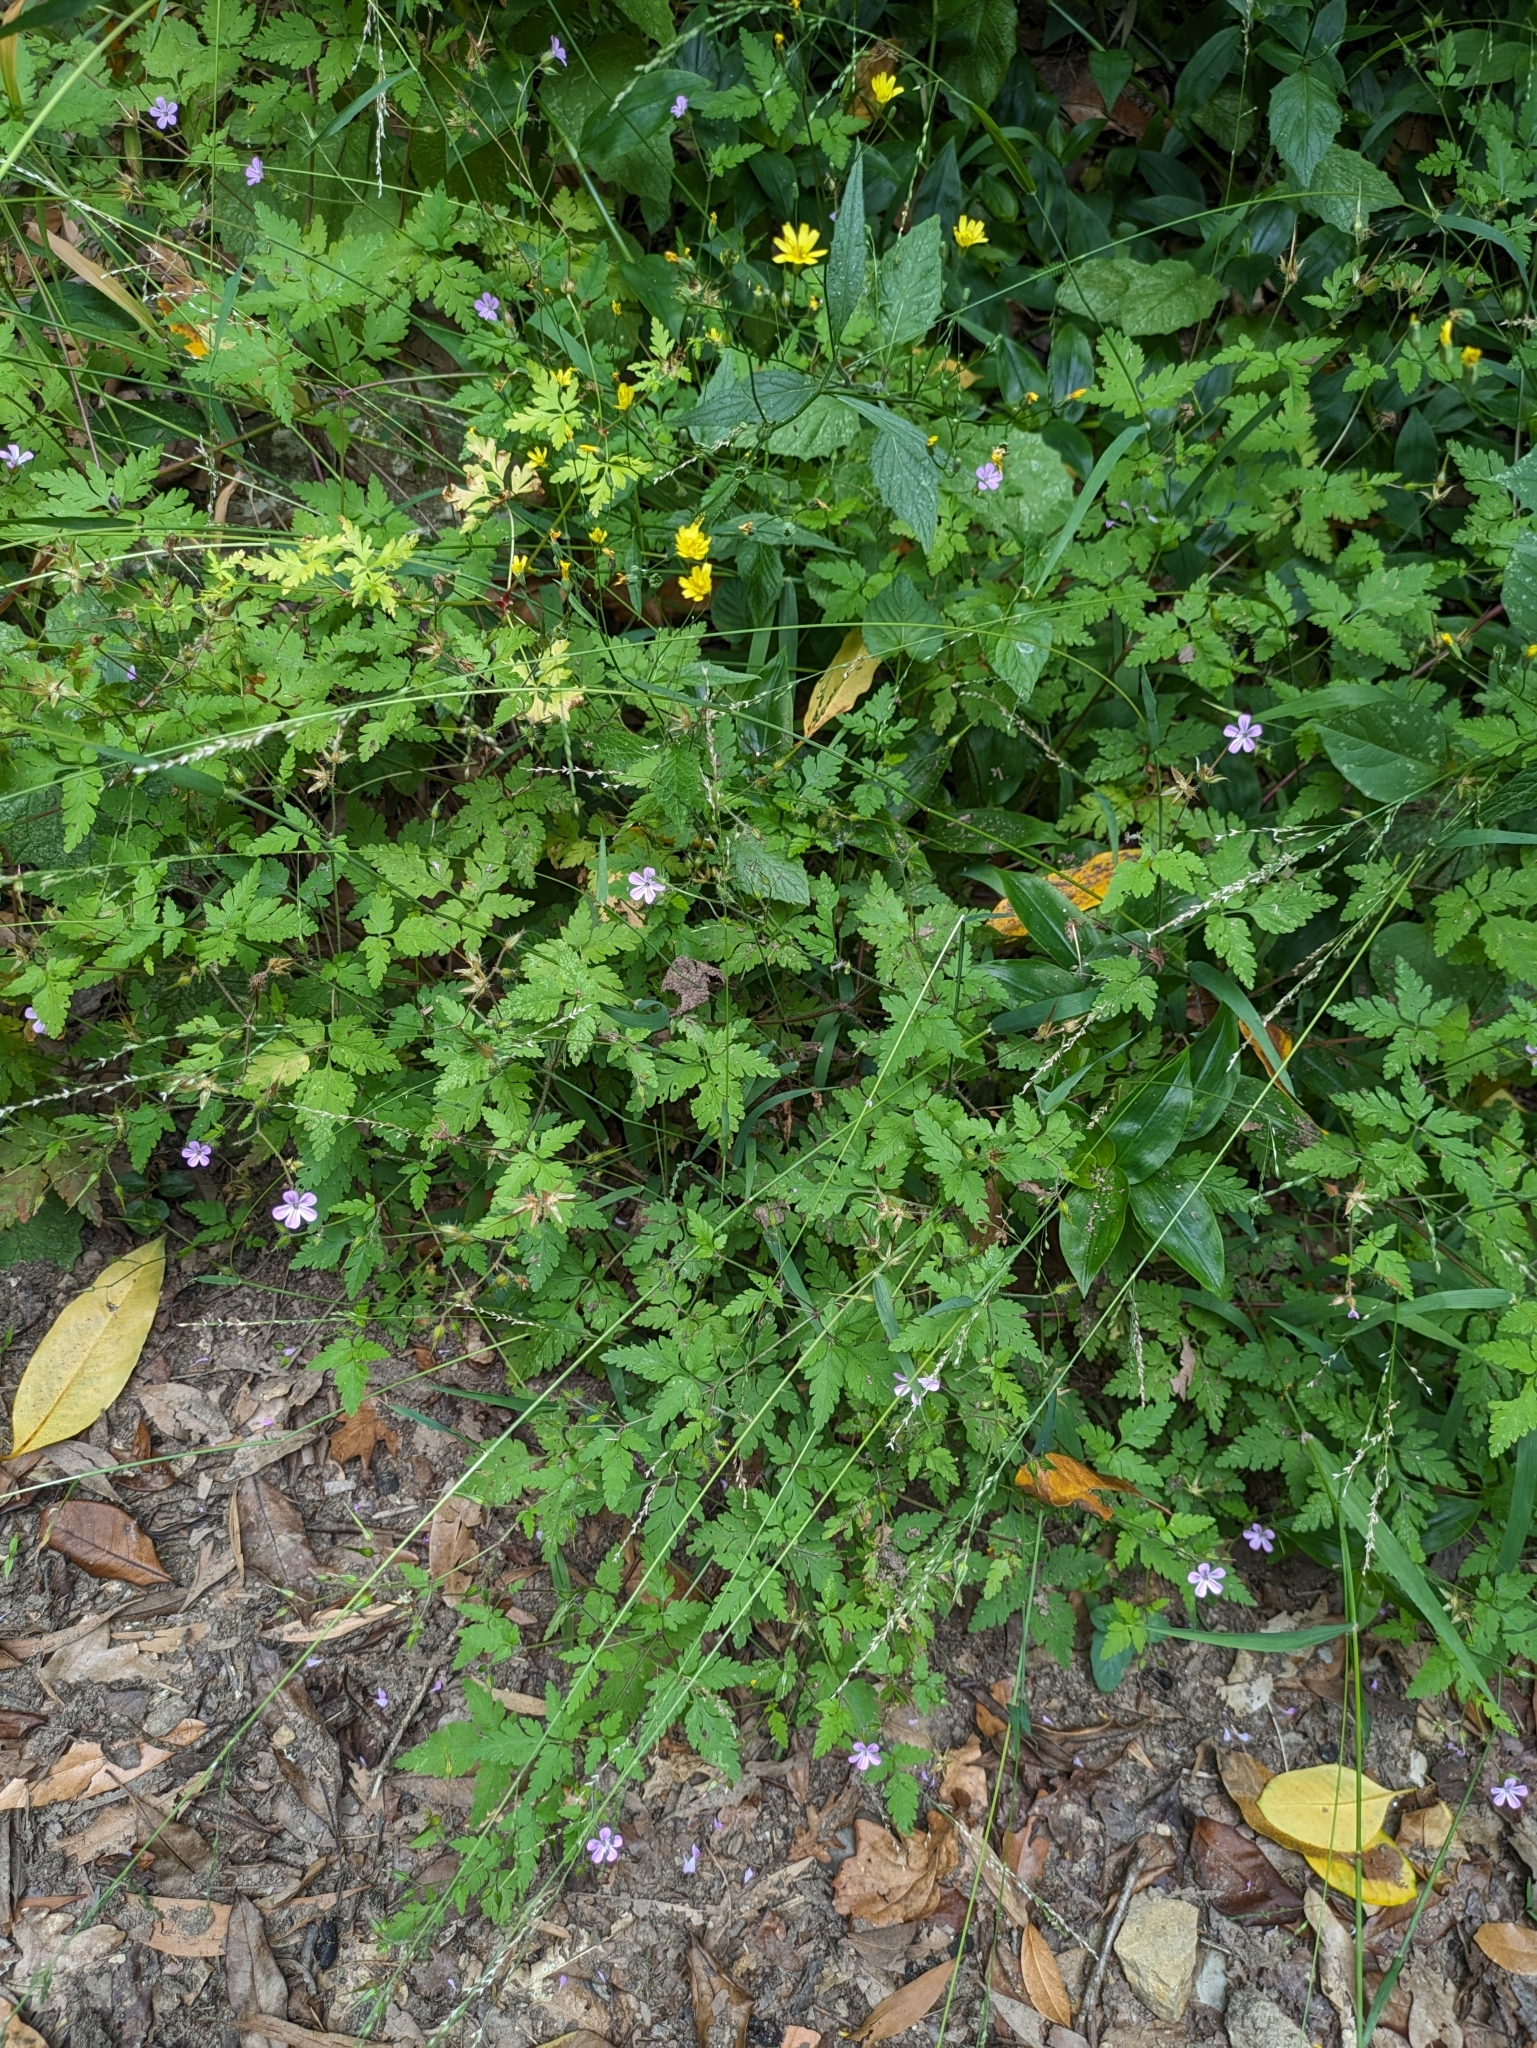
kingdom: Plantae
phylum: Tracheophyta
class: Magnoliopsida
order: Geraniales
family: Geraniaceae
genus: Geranium
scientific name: Geranium robertianum
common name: Herb-robert
